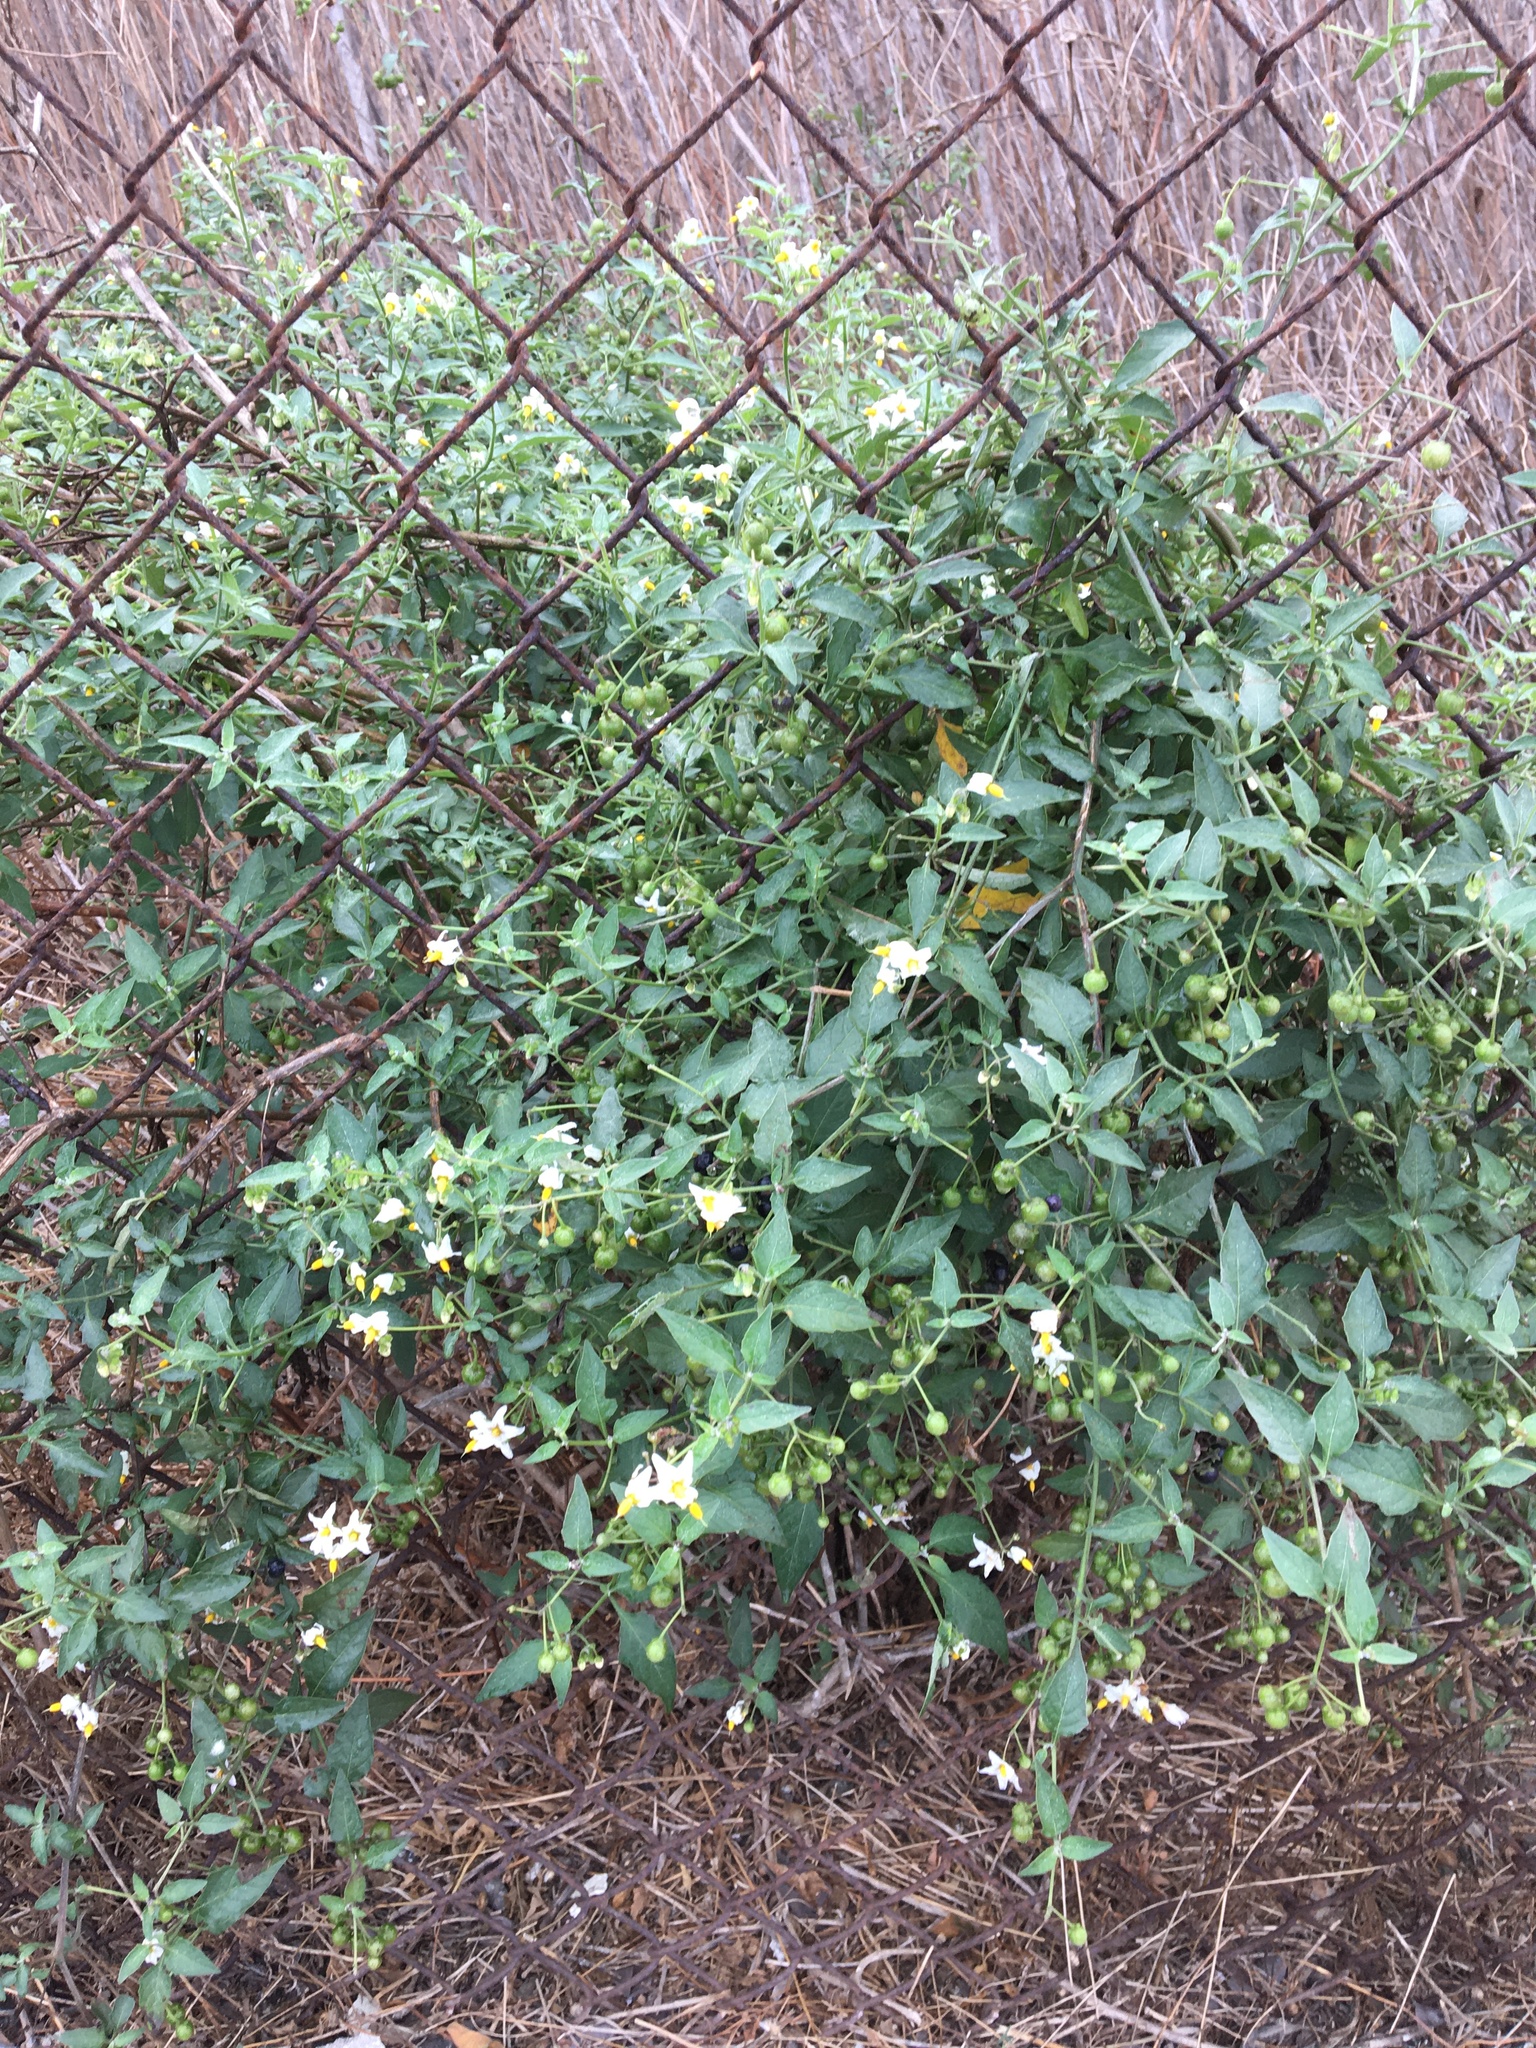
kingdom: Plantae
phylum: Tracheophyta
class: Magnoliopsida
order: Solanales
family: Solanaceae
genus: Solanum
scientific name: Solanum douglasii
